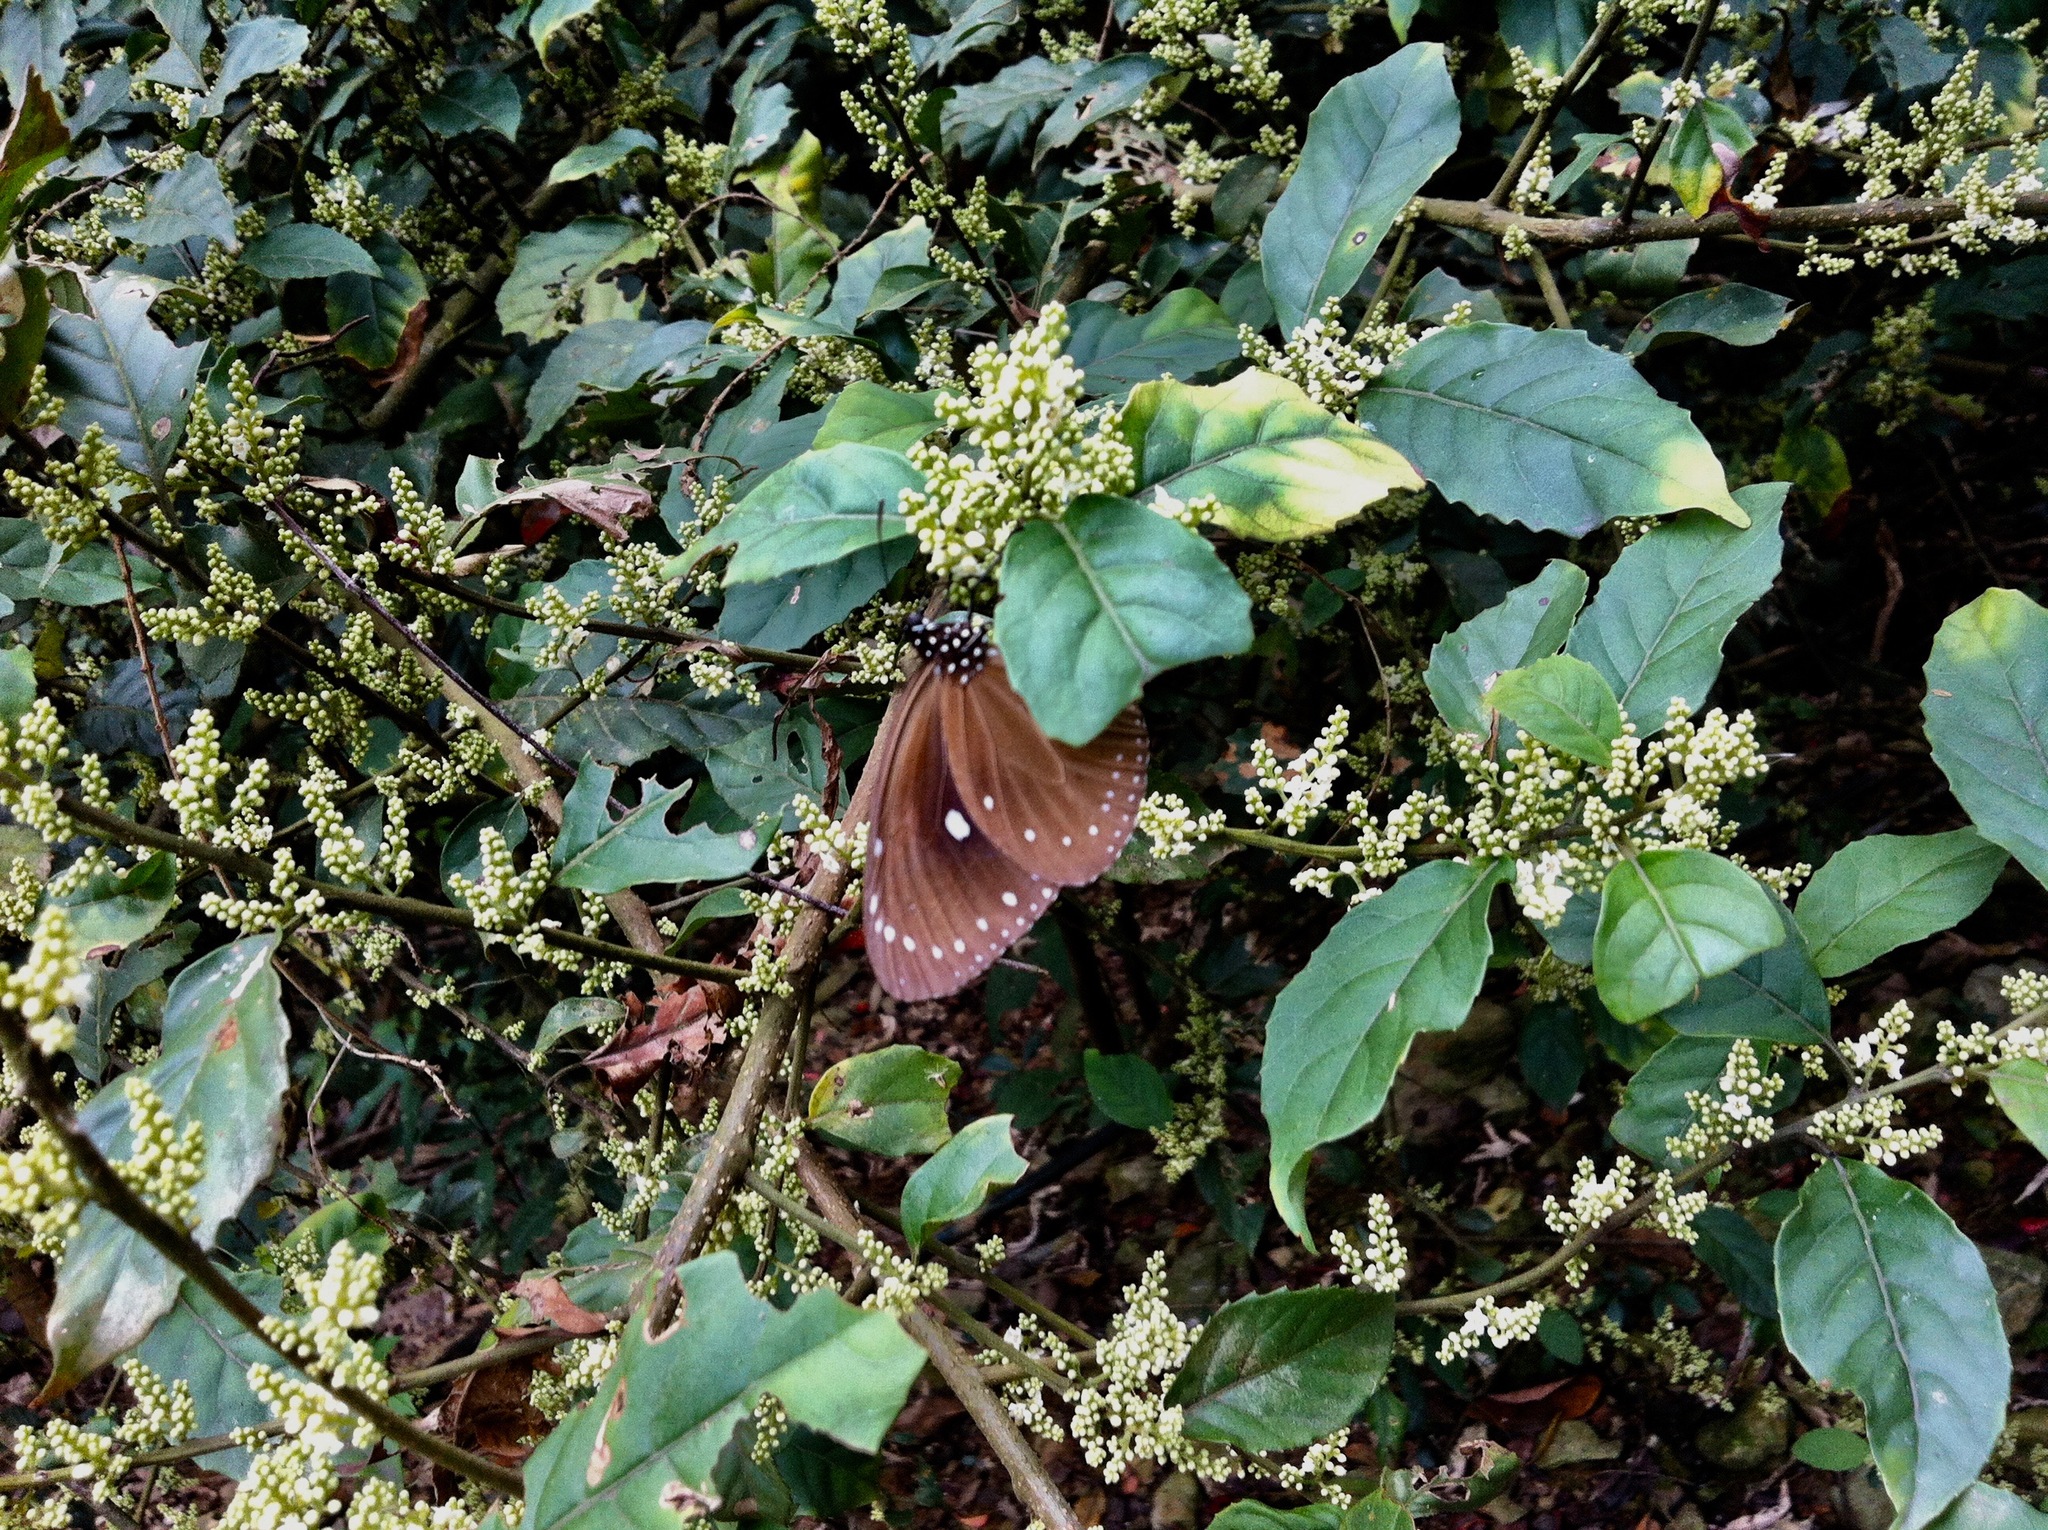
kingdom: Plantae
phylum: Tracheophyta
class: Magnoliopsida
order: Ericales
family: Primulaceae
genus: Maesa
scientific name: Maesa perlaria
